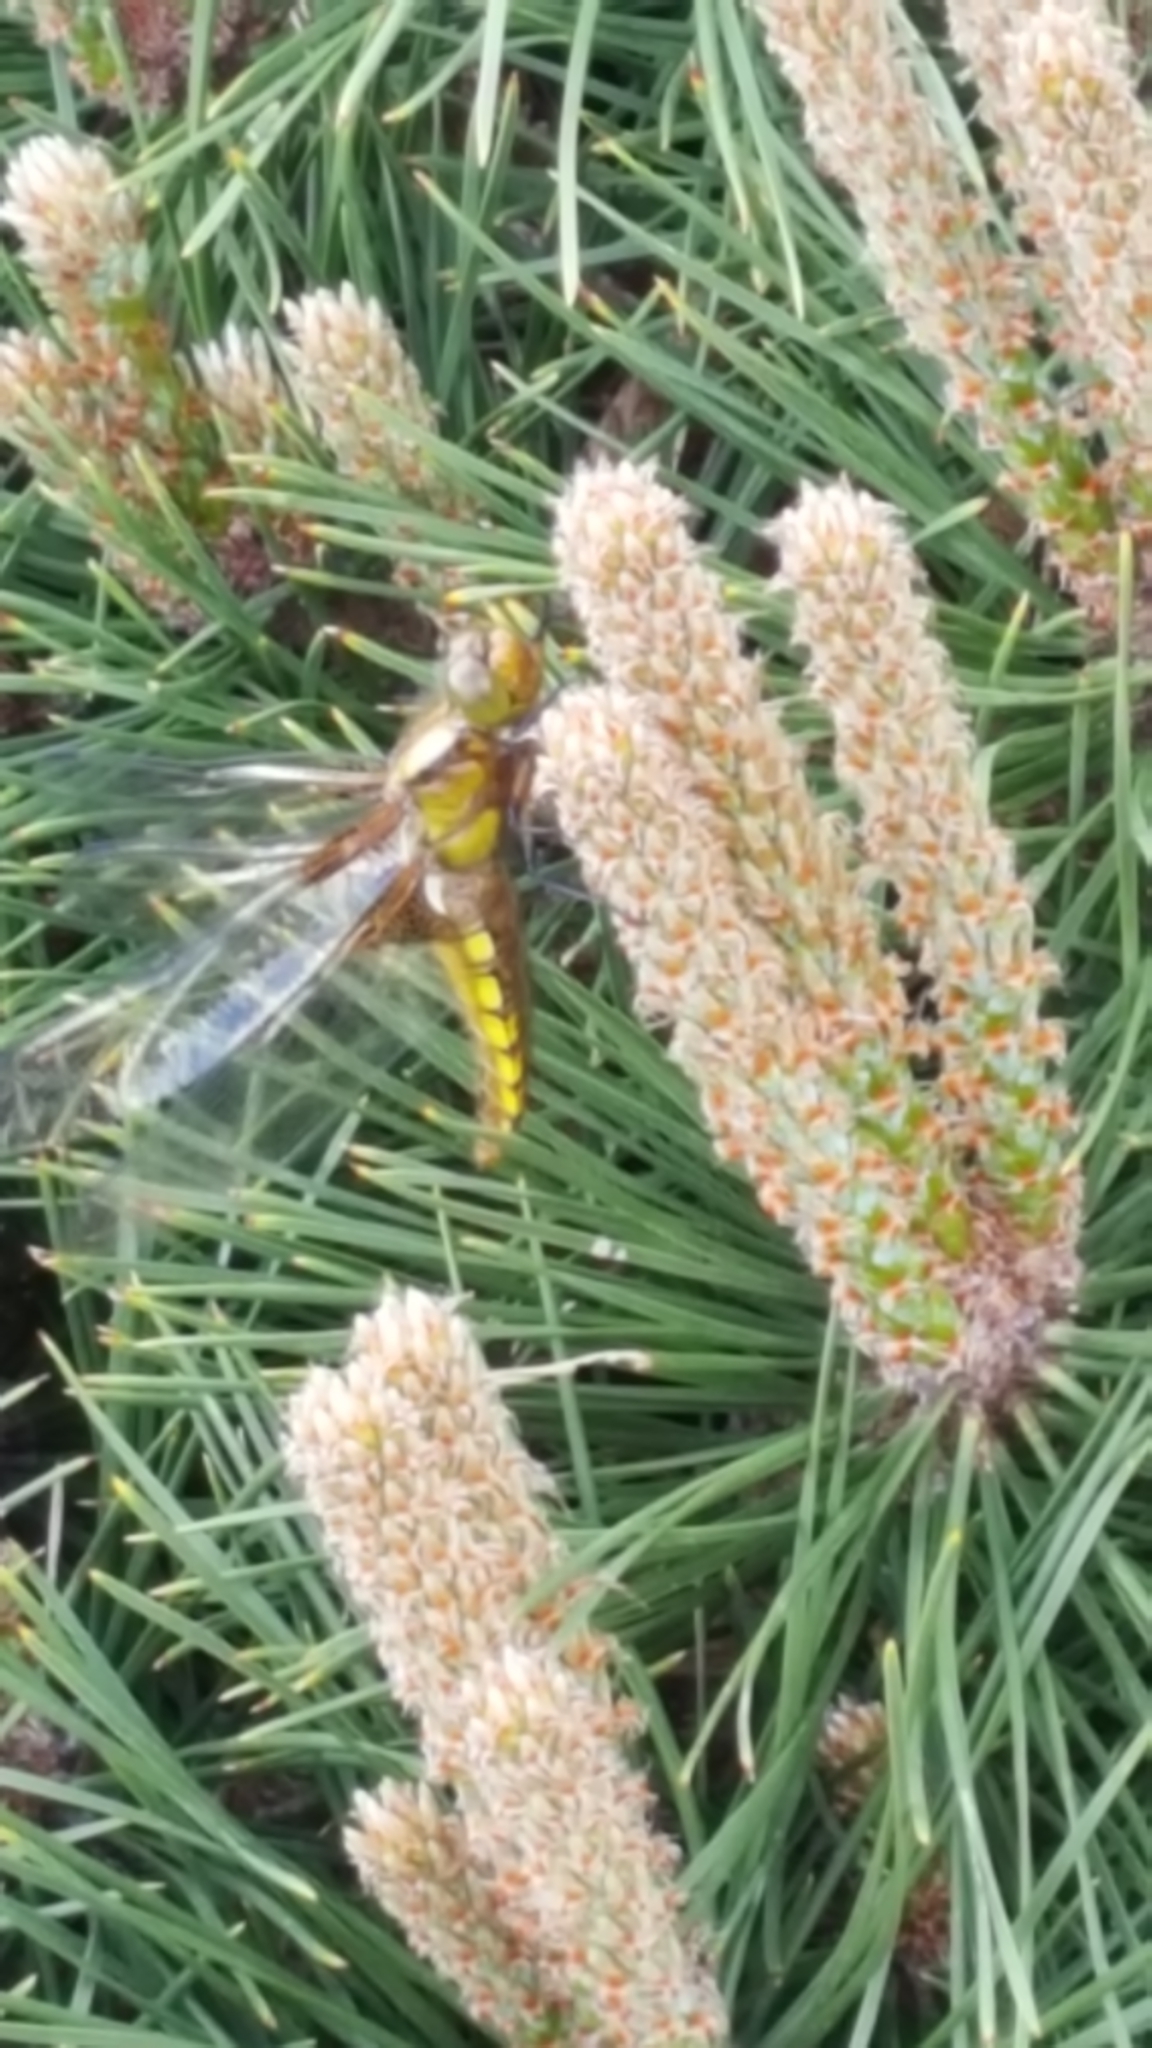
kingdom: Animalia
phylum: Arthropoda
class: Insecta
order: Odonata
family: Libellulidae
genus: Libellula
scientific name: Libellula depressa
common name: Broad-bodied chaser
